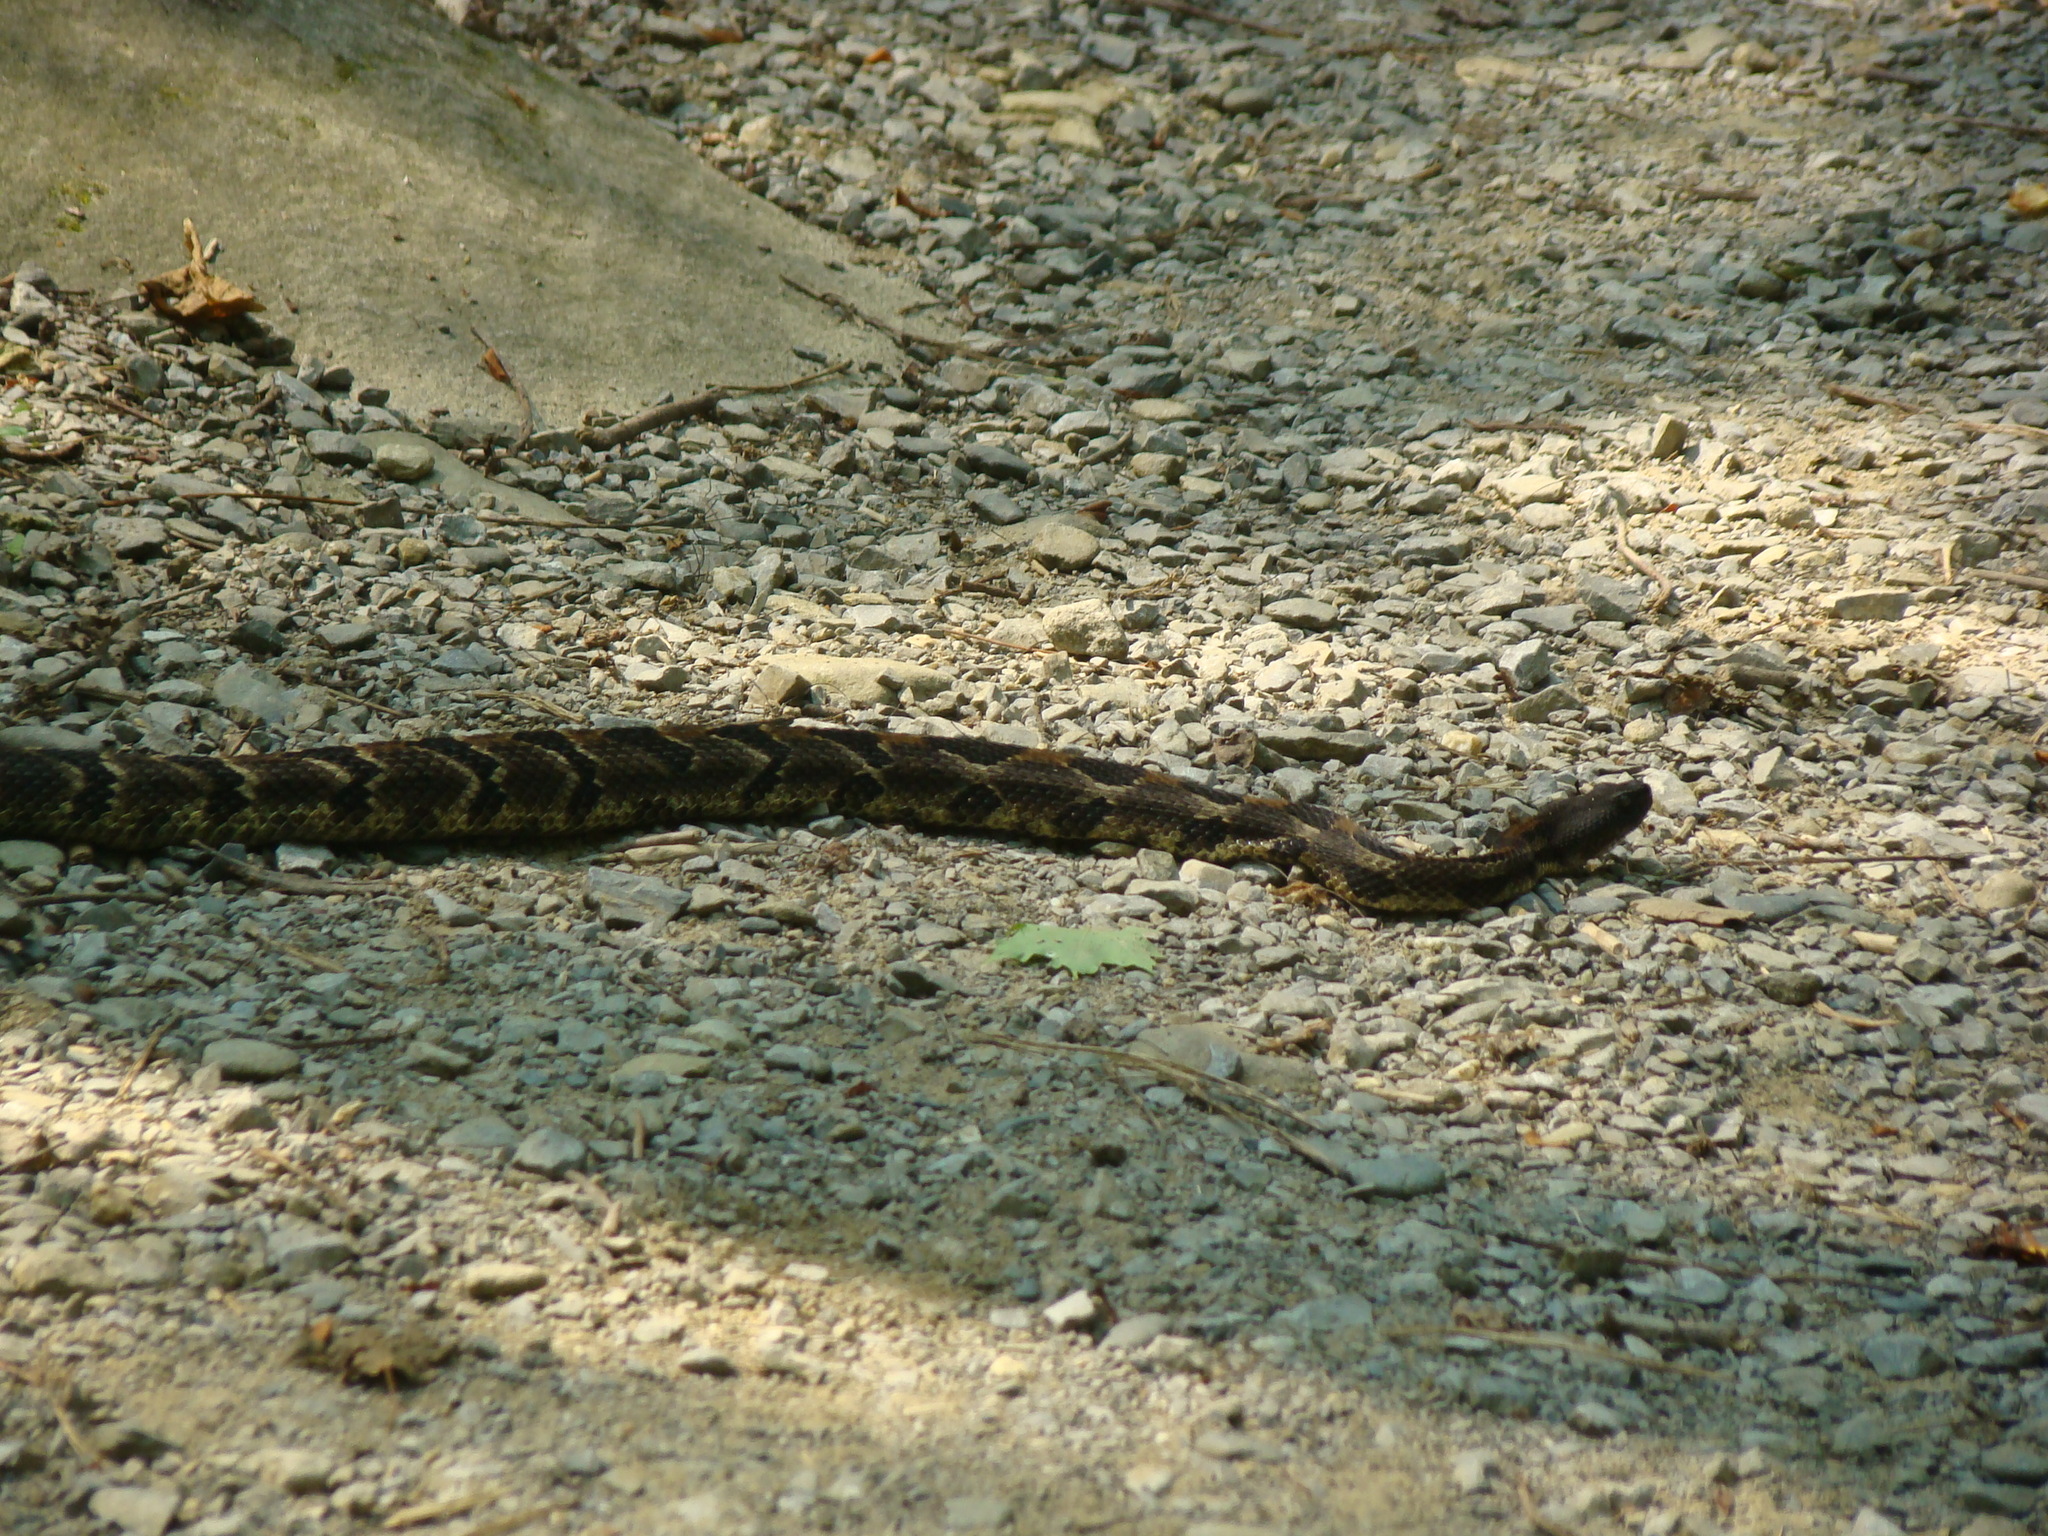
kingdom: Animalia
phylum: Chordata
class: Squamata
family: Viperidae
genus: Crotalus
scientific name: Crotalus horridus
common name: Timber rattlesnake
